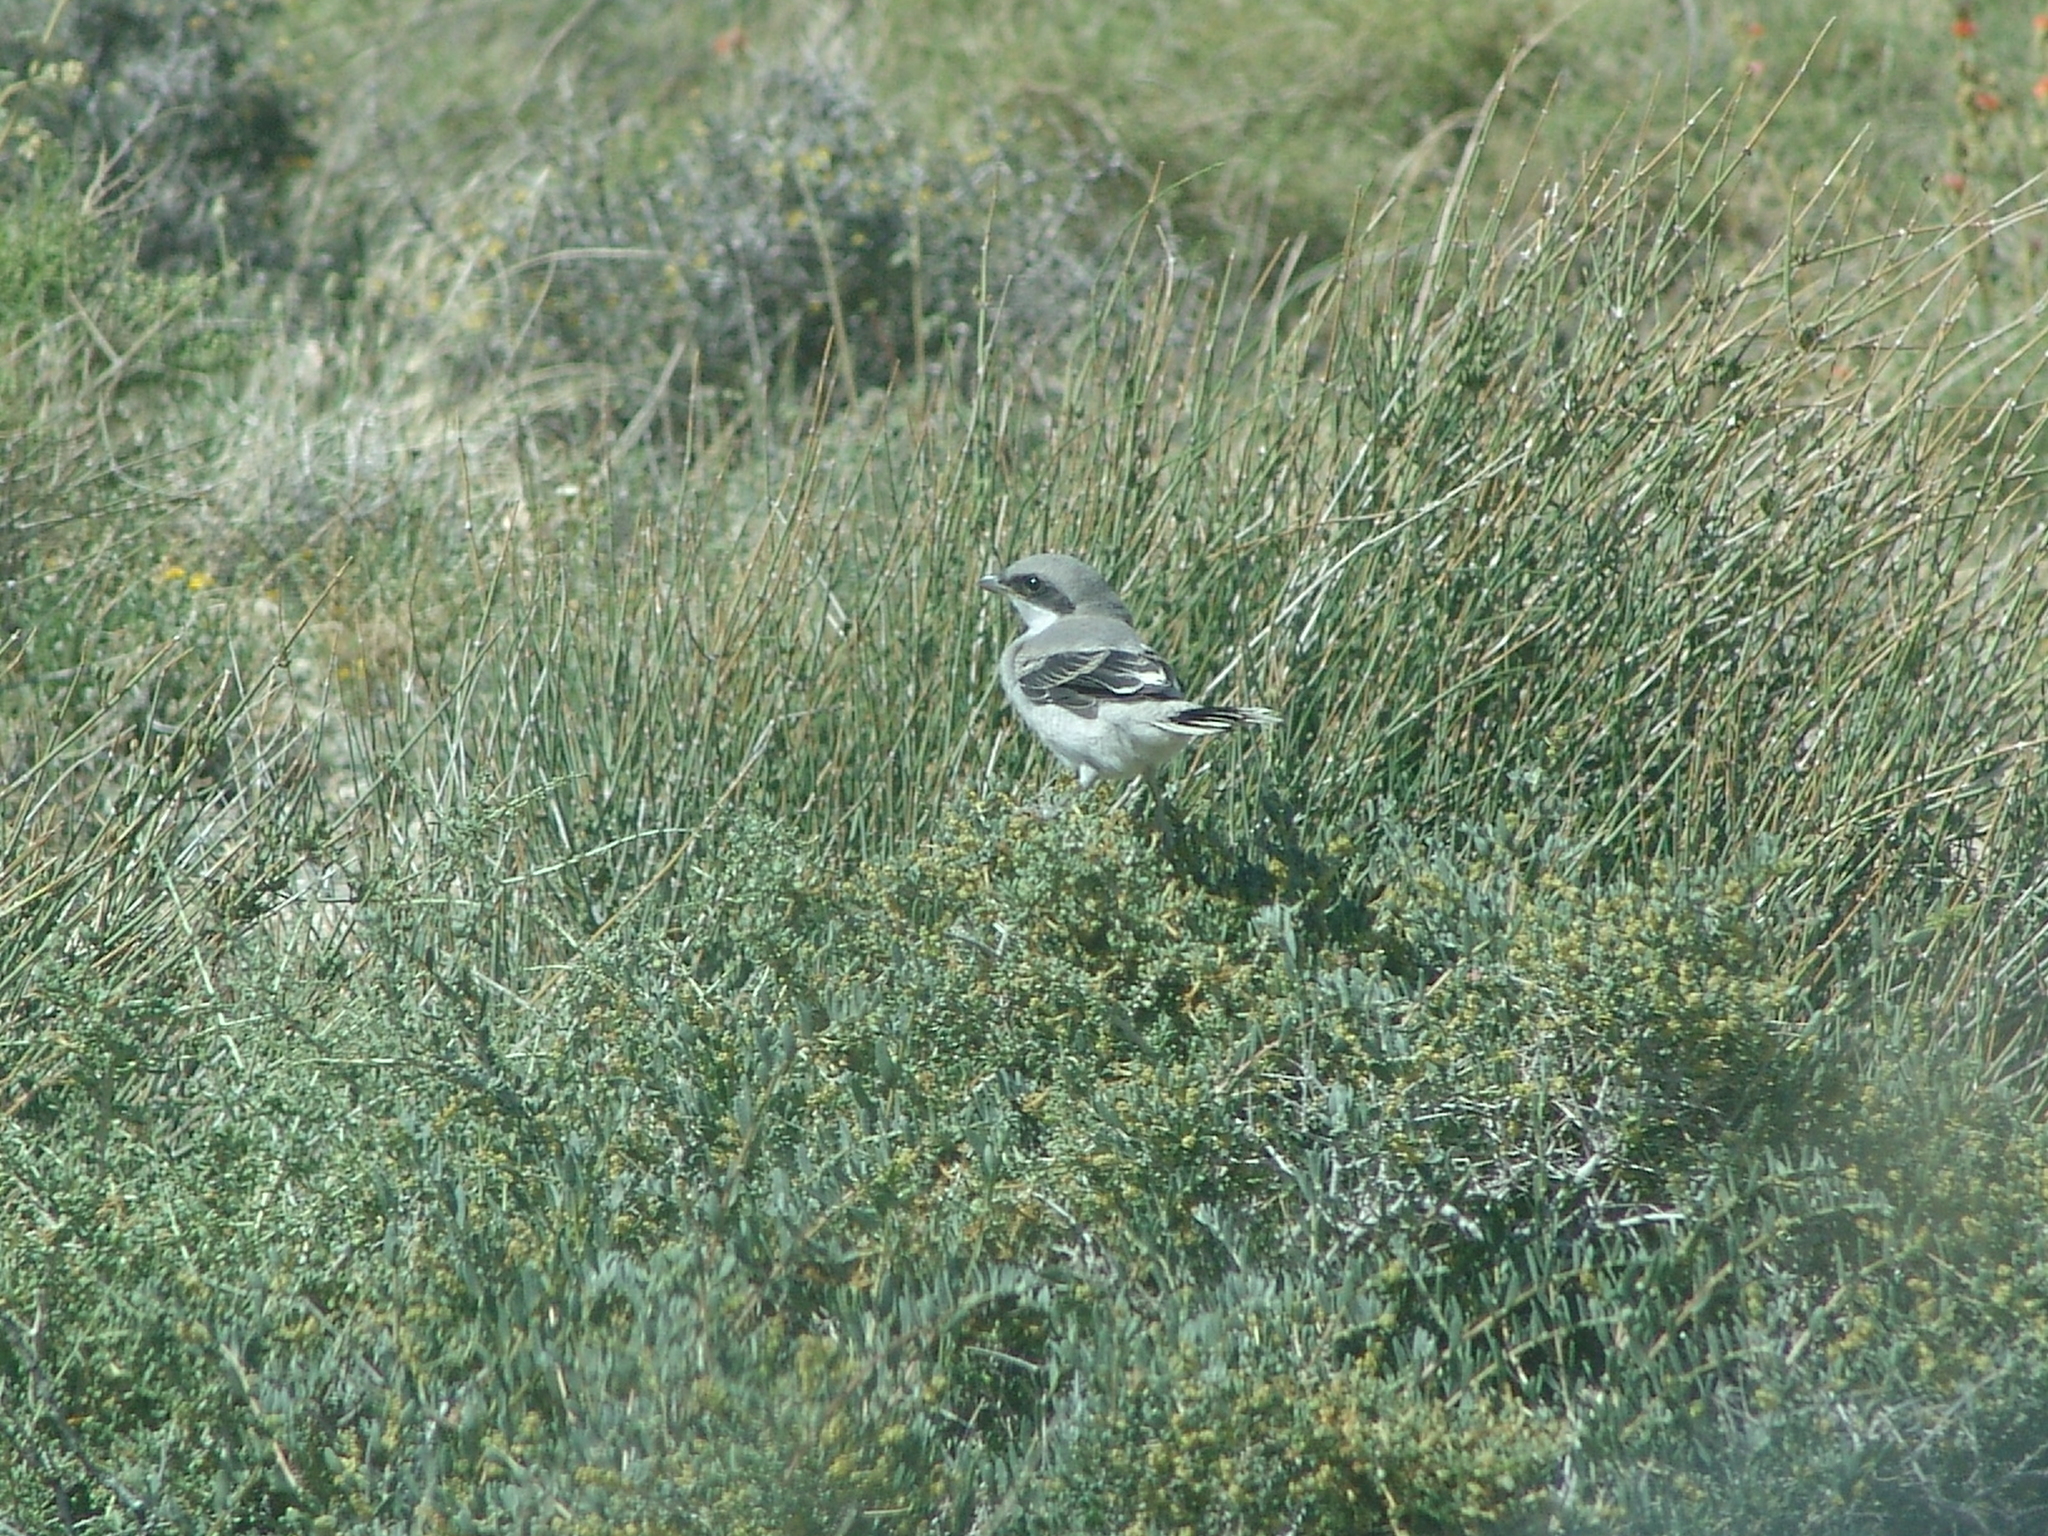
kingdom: Animalia
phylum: Chordata
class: Aves
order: Passeriformes
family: Laniidae
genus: Lanius
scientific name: Lanius ludovicianus
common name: Loggerhead shrike
